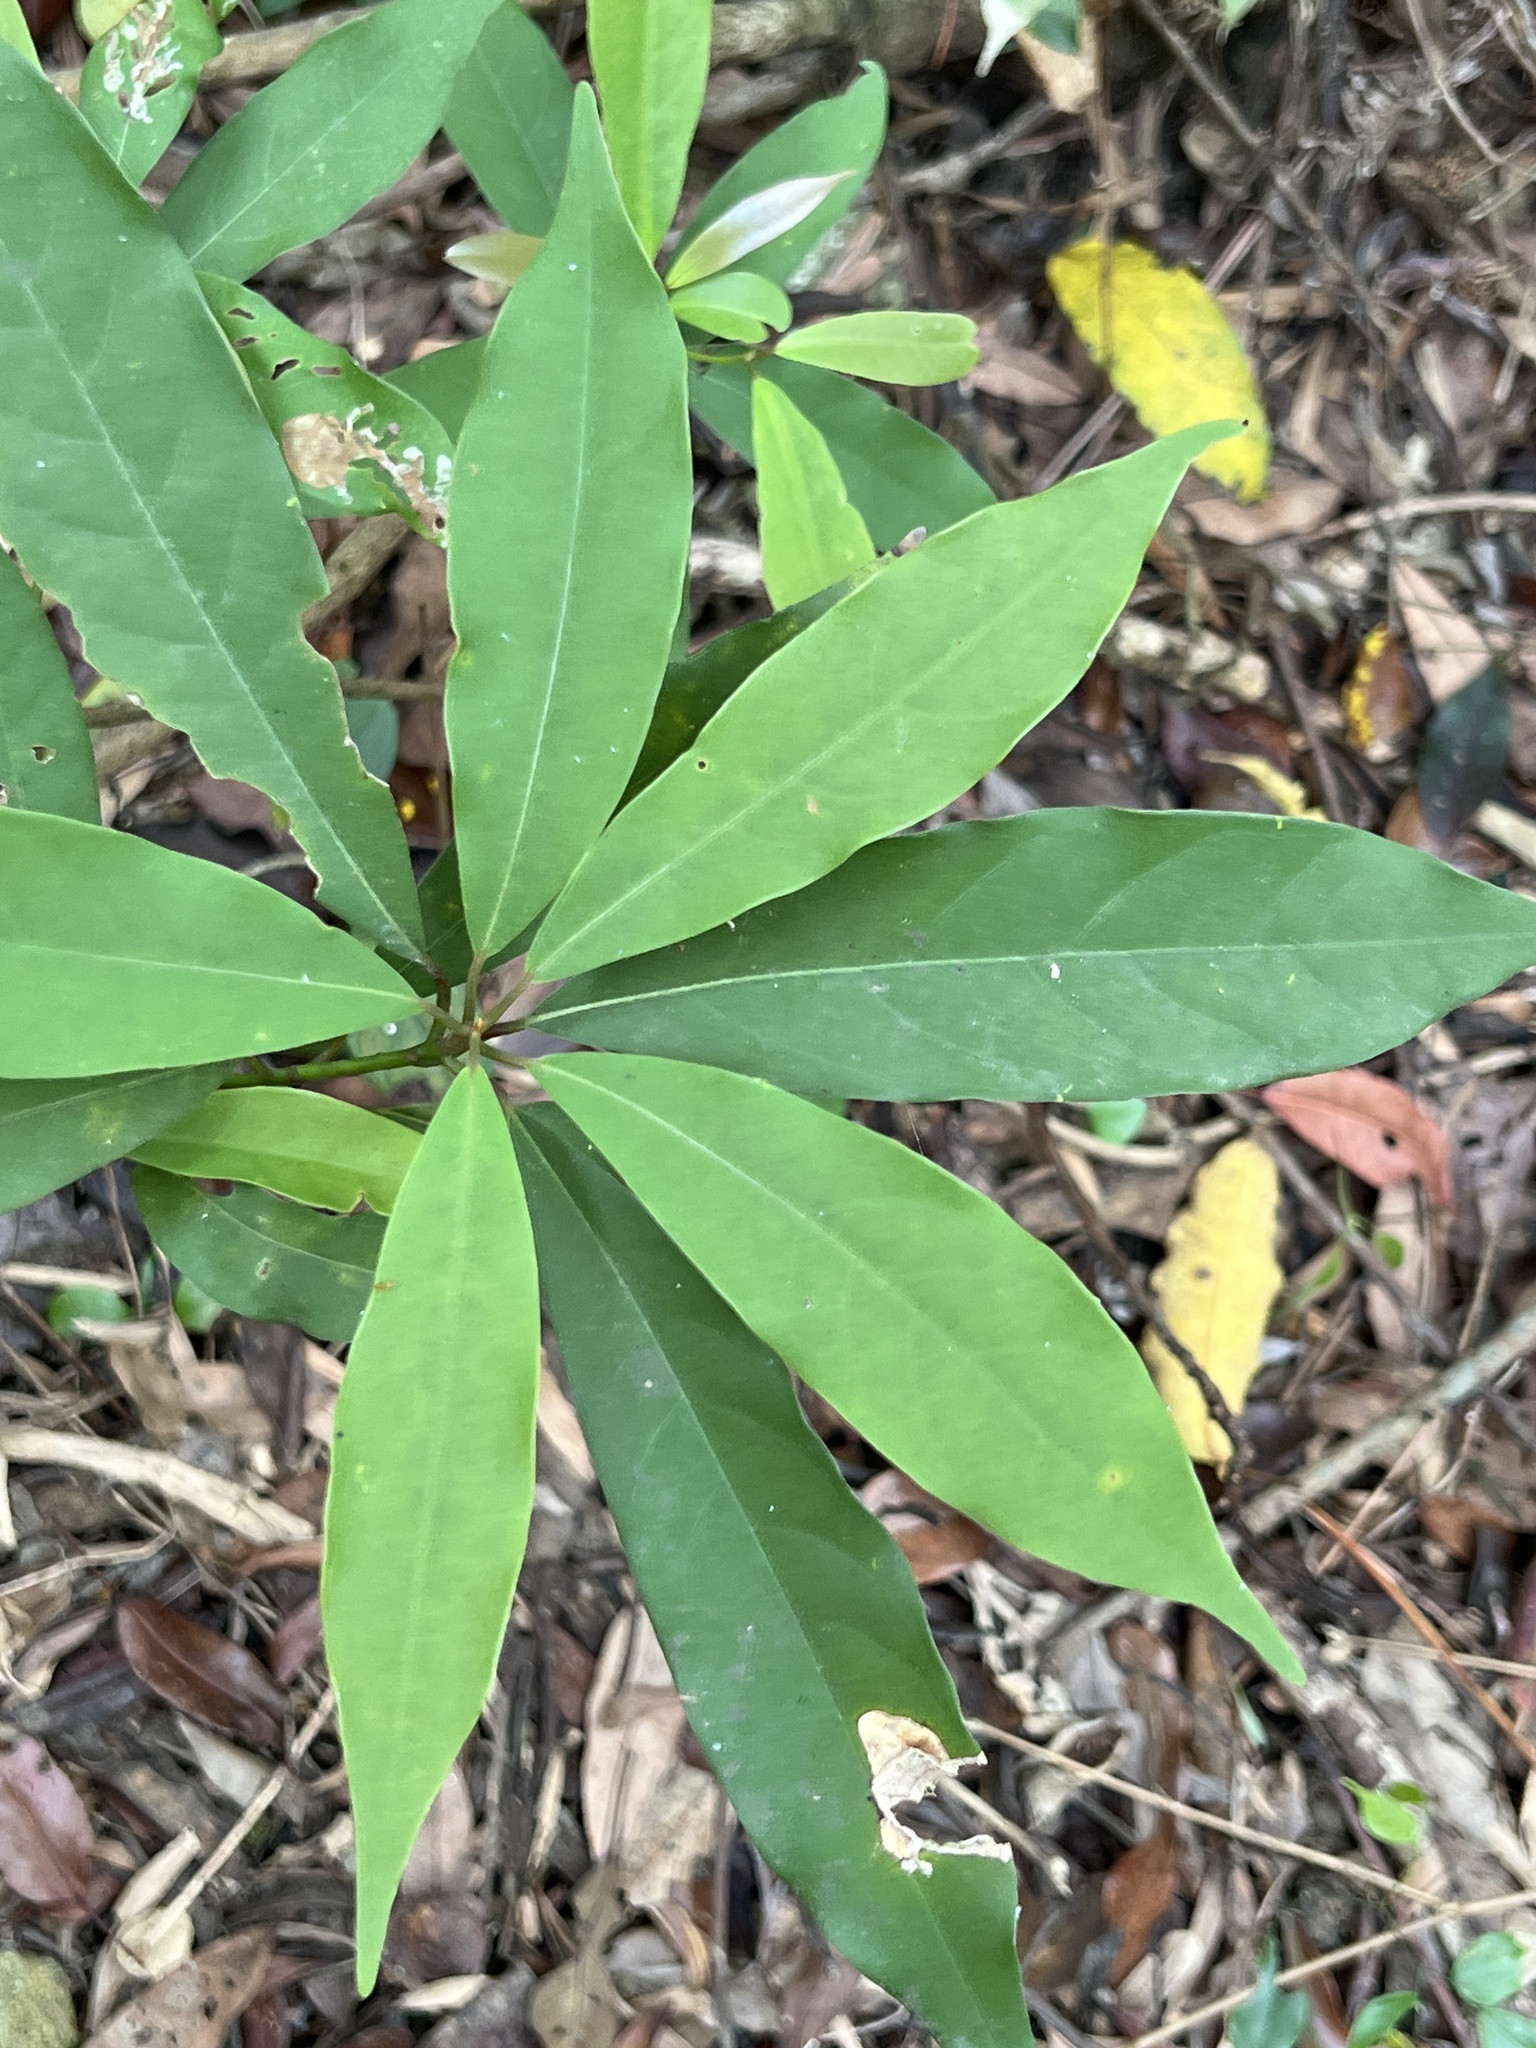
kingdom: Plantae
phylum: Tracheophyta
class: Magnoliopsida
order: Laurales
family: Lauraceae
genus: Machilus
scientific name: Machilus zuihoensis
